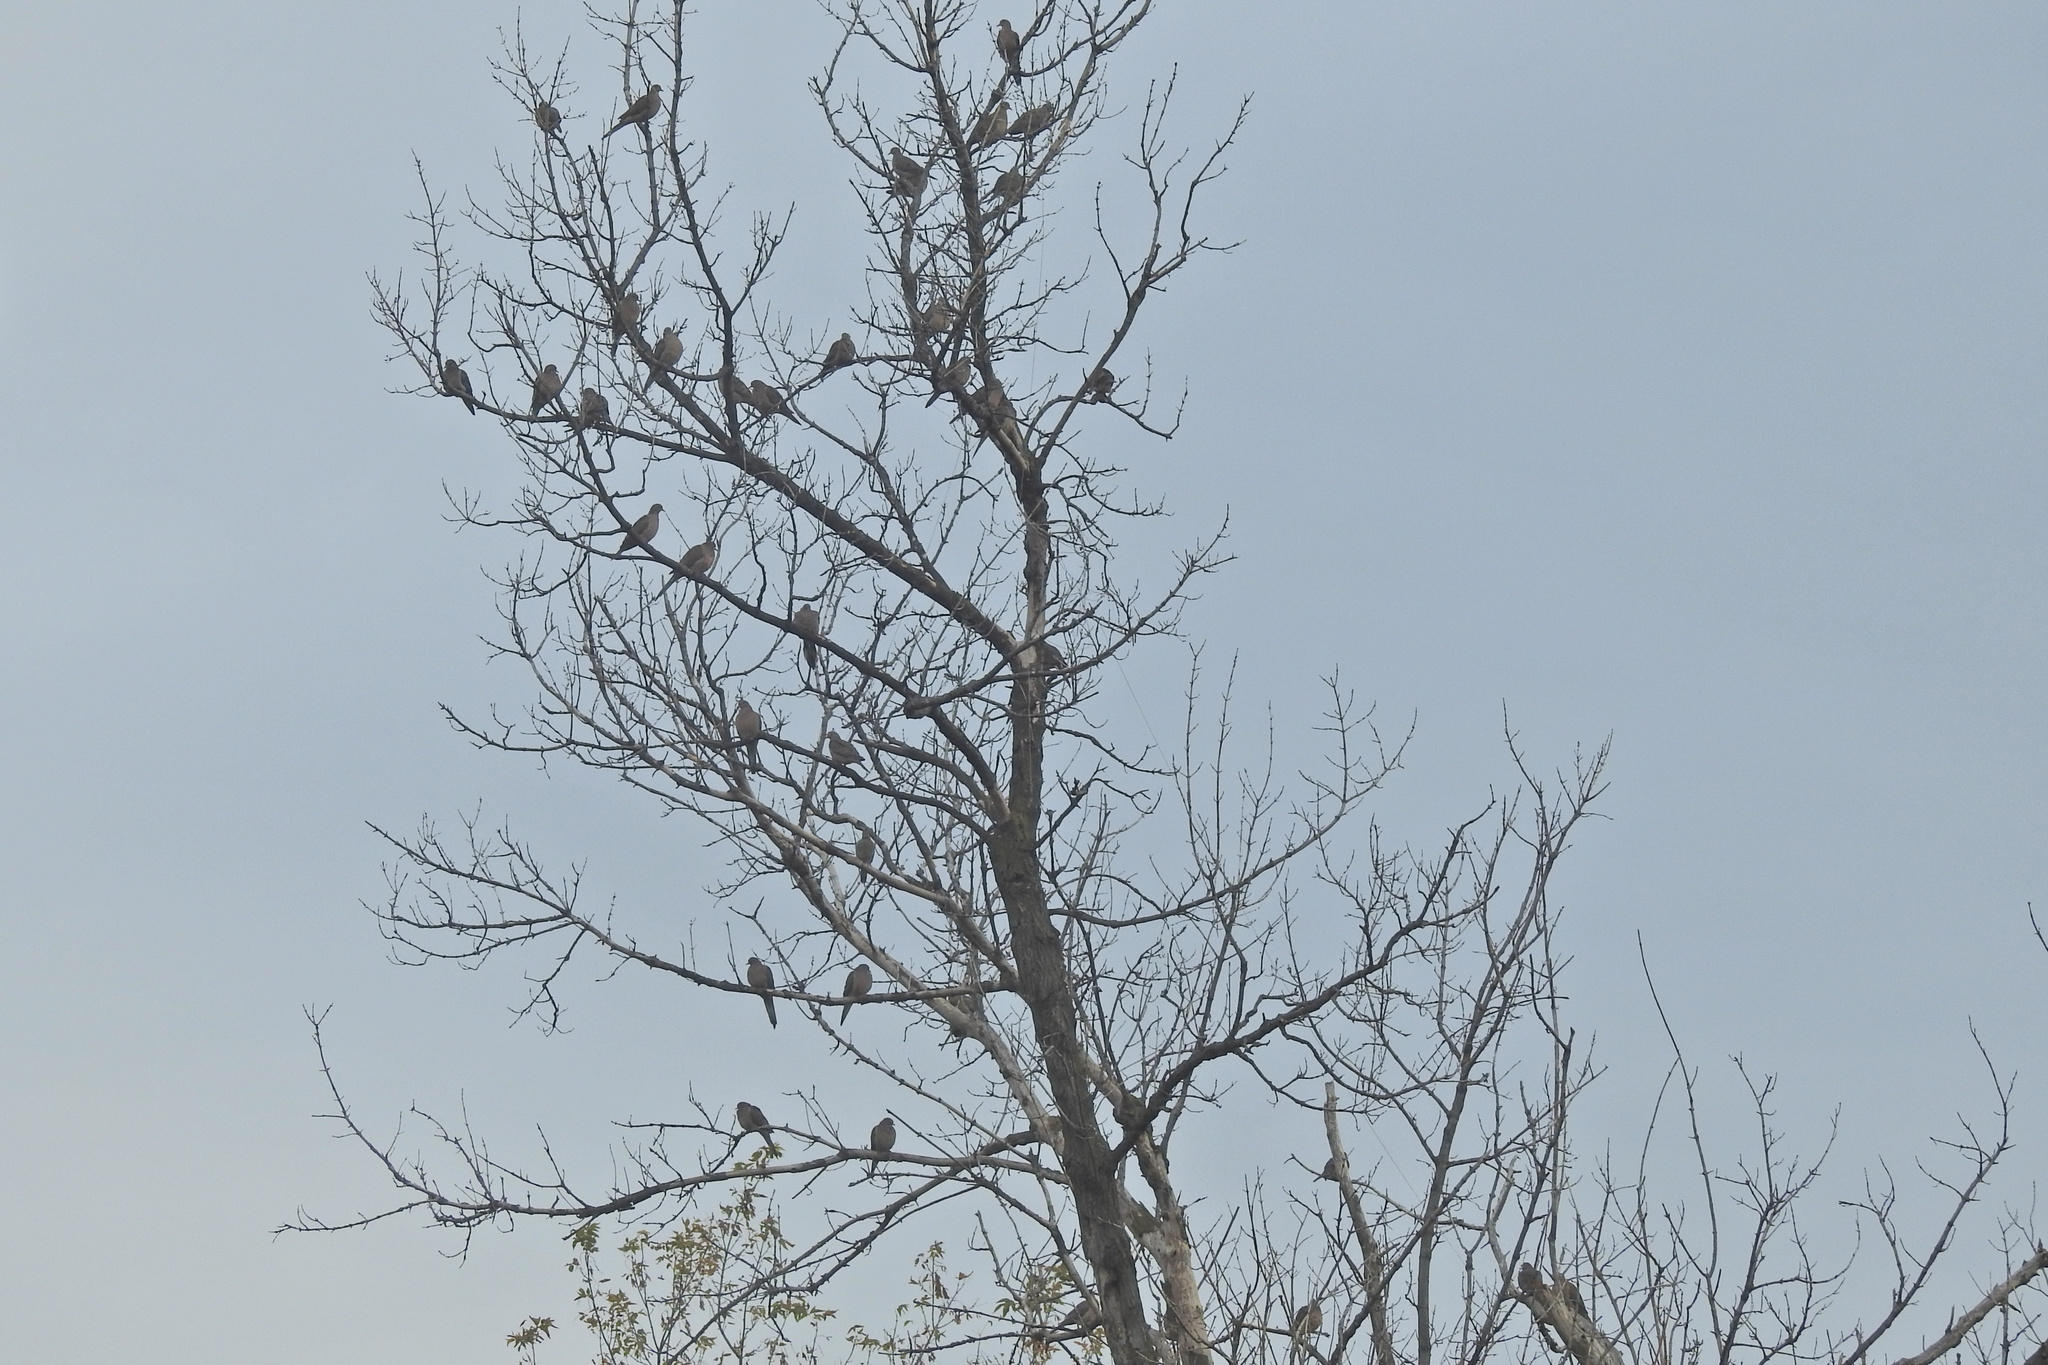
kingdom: Animalia
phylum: Chordata
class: Aves
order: Columbiformes
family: Columbidae
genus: Zenaida
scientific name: Zenaida macroura
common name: Mourning dove
